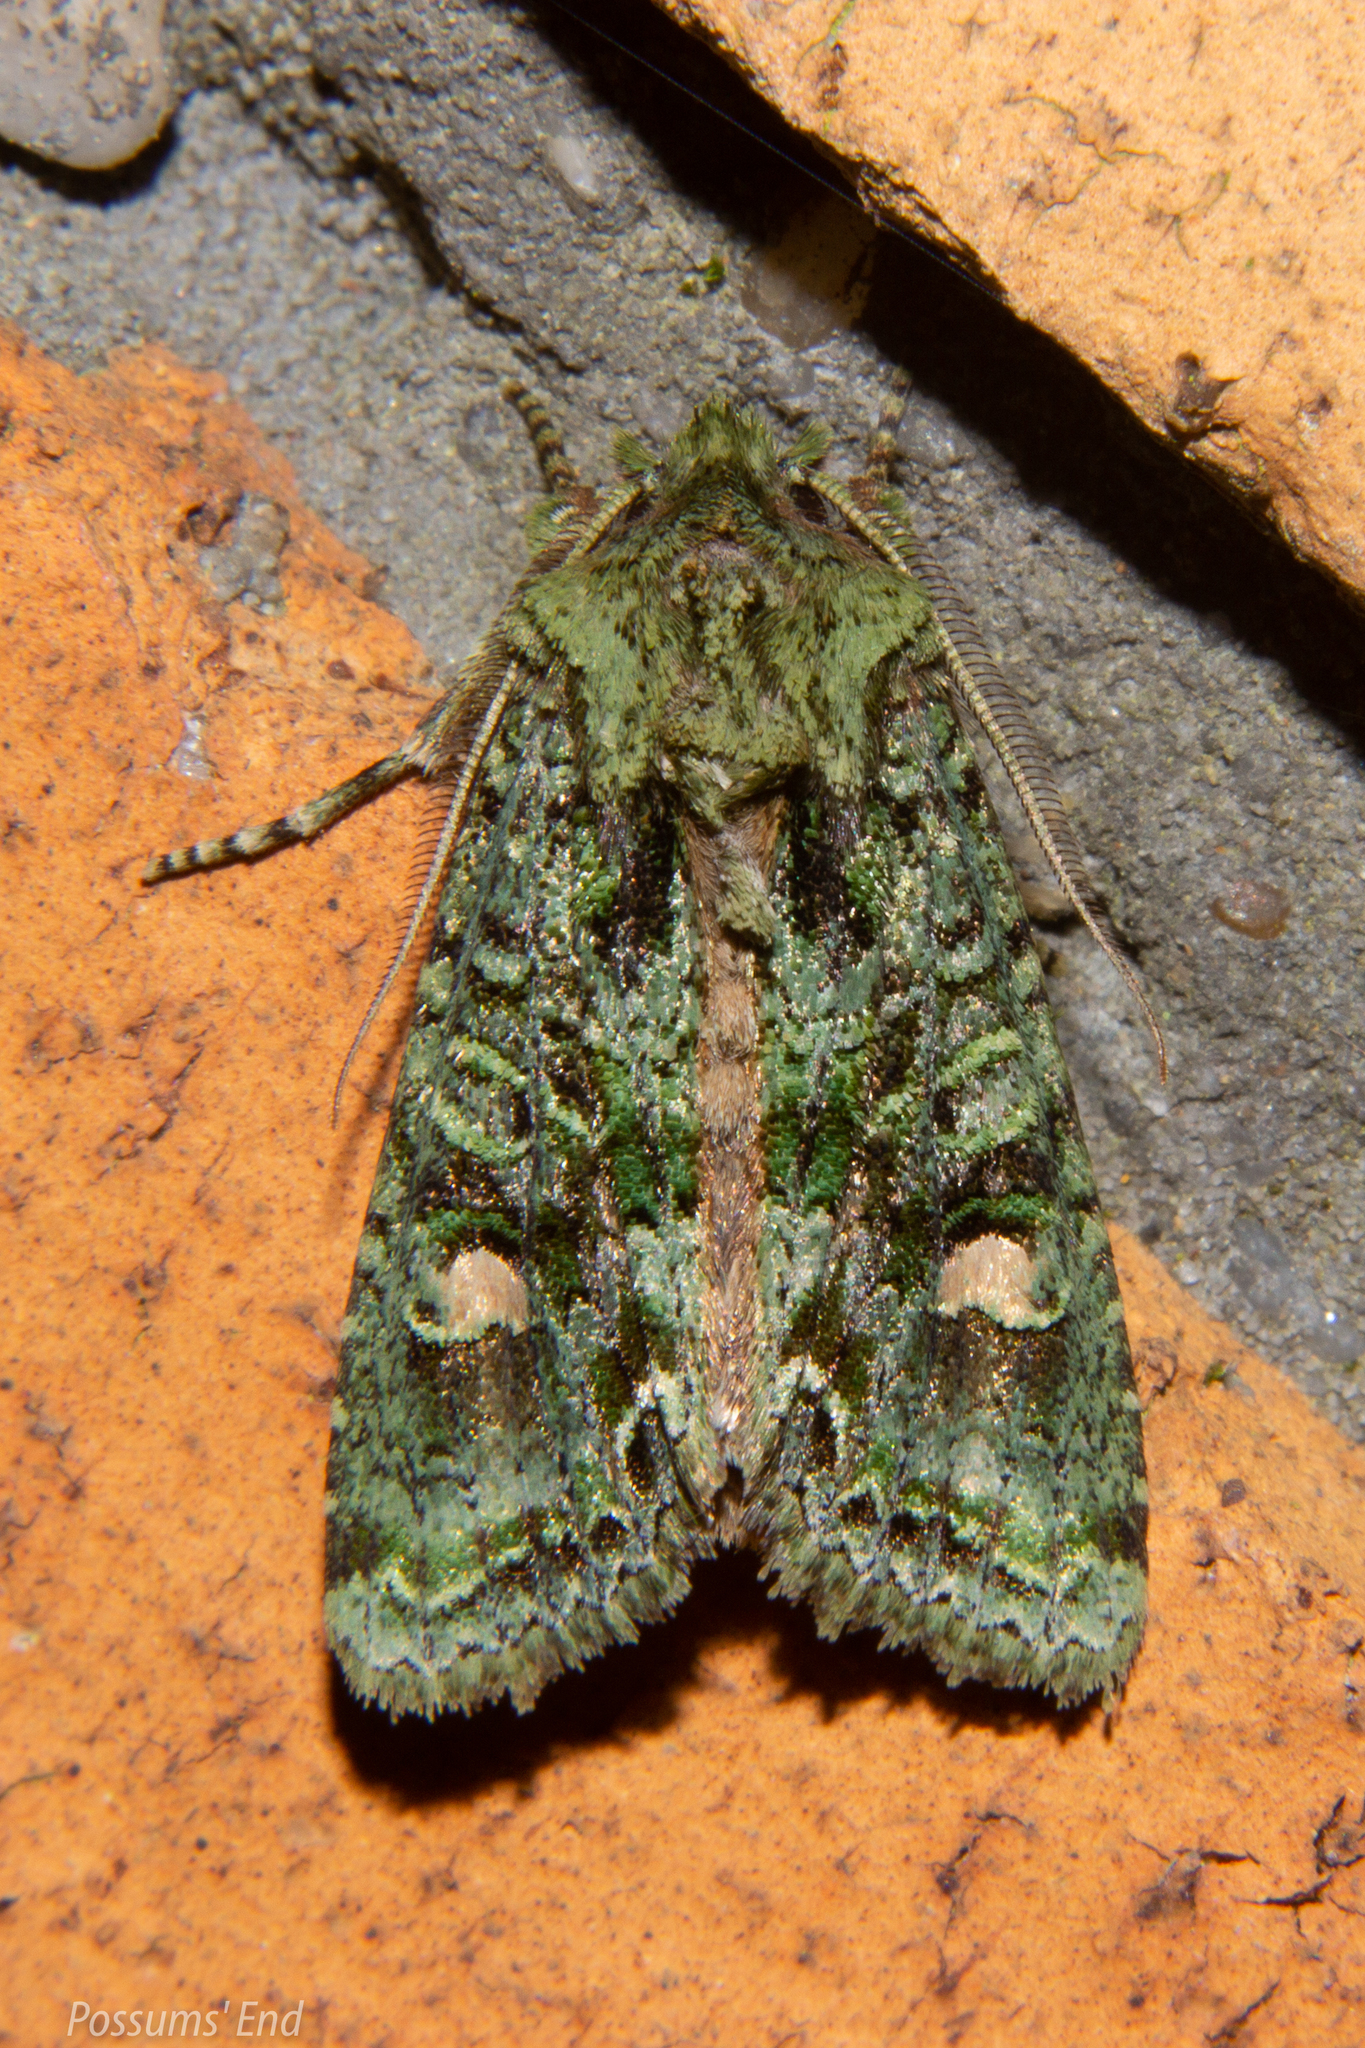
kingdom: Animalia
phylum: Arthropoda
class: Insecta
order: Lepidoptera
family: Noctuidae
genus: Ichneutica
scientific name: Ichneutica
